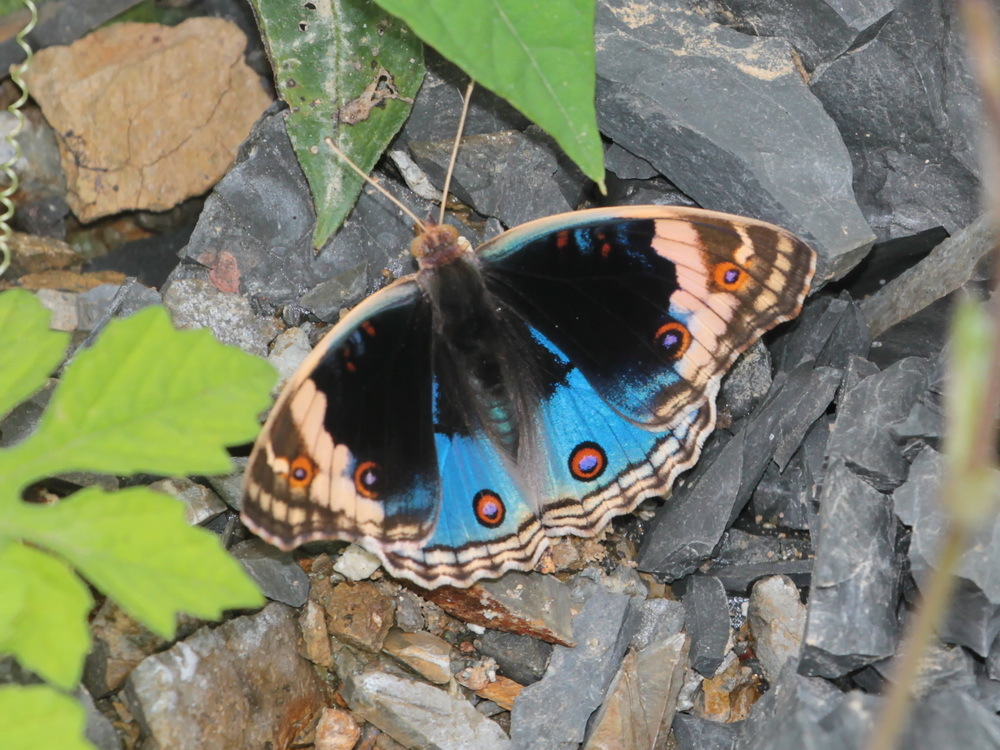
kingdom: Animalia
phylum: Arthropoda
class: Insecta
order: Lepidoptera
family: Nymphalidae
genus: Junonia
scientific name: Junonia orithya
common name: Blue pansy
